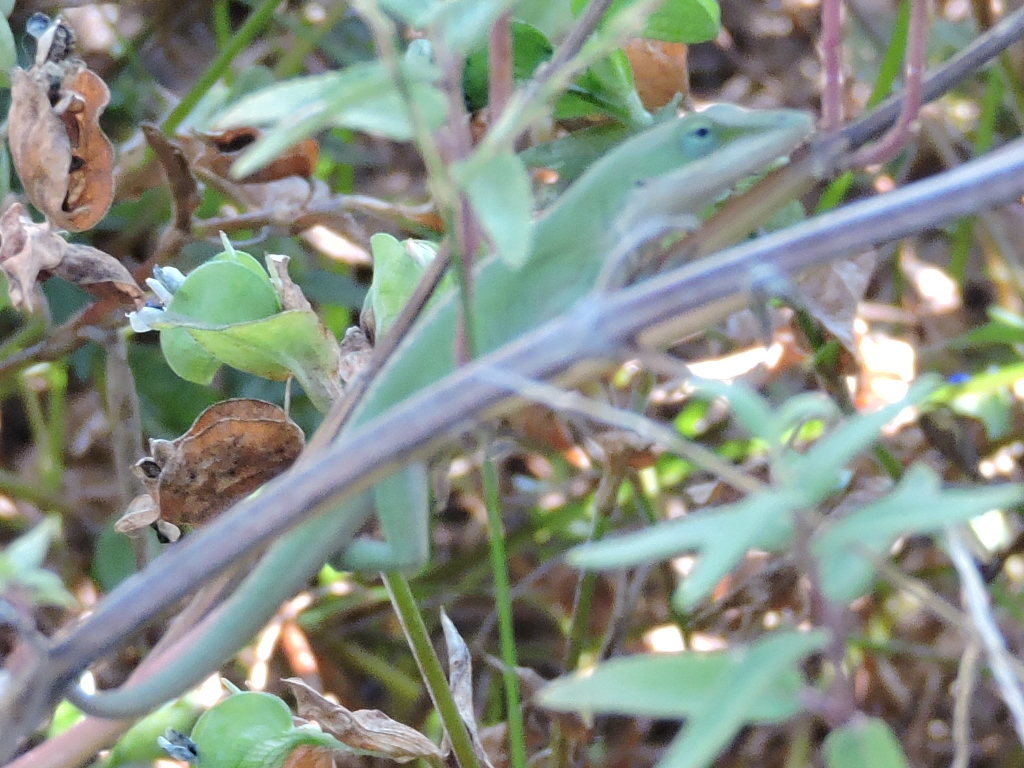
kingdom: Animalia
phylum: Chordata
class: Squamata
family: Dactyloidae
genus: Anolis
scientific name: Anolis carolinensis
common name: Green anole
